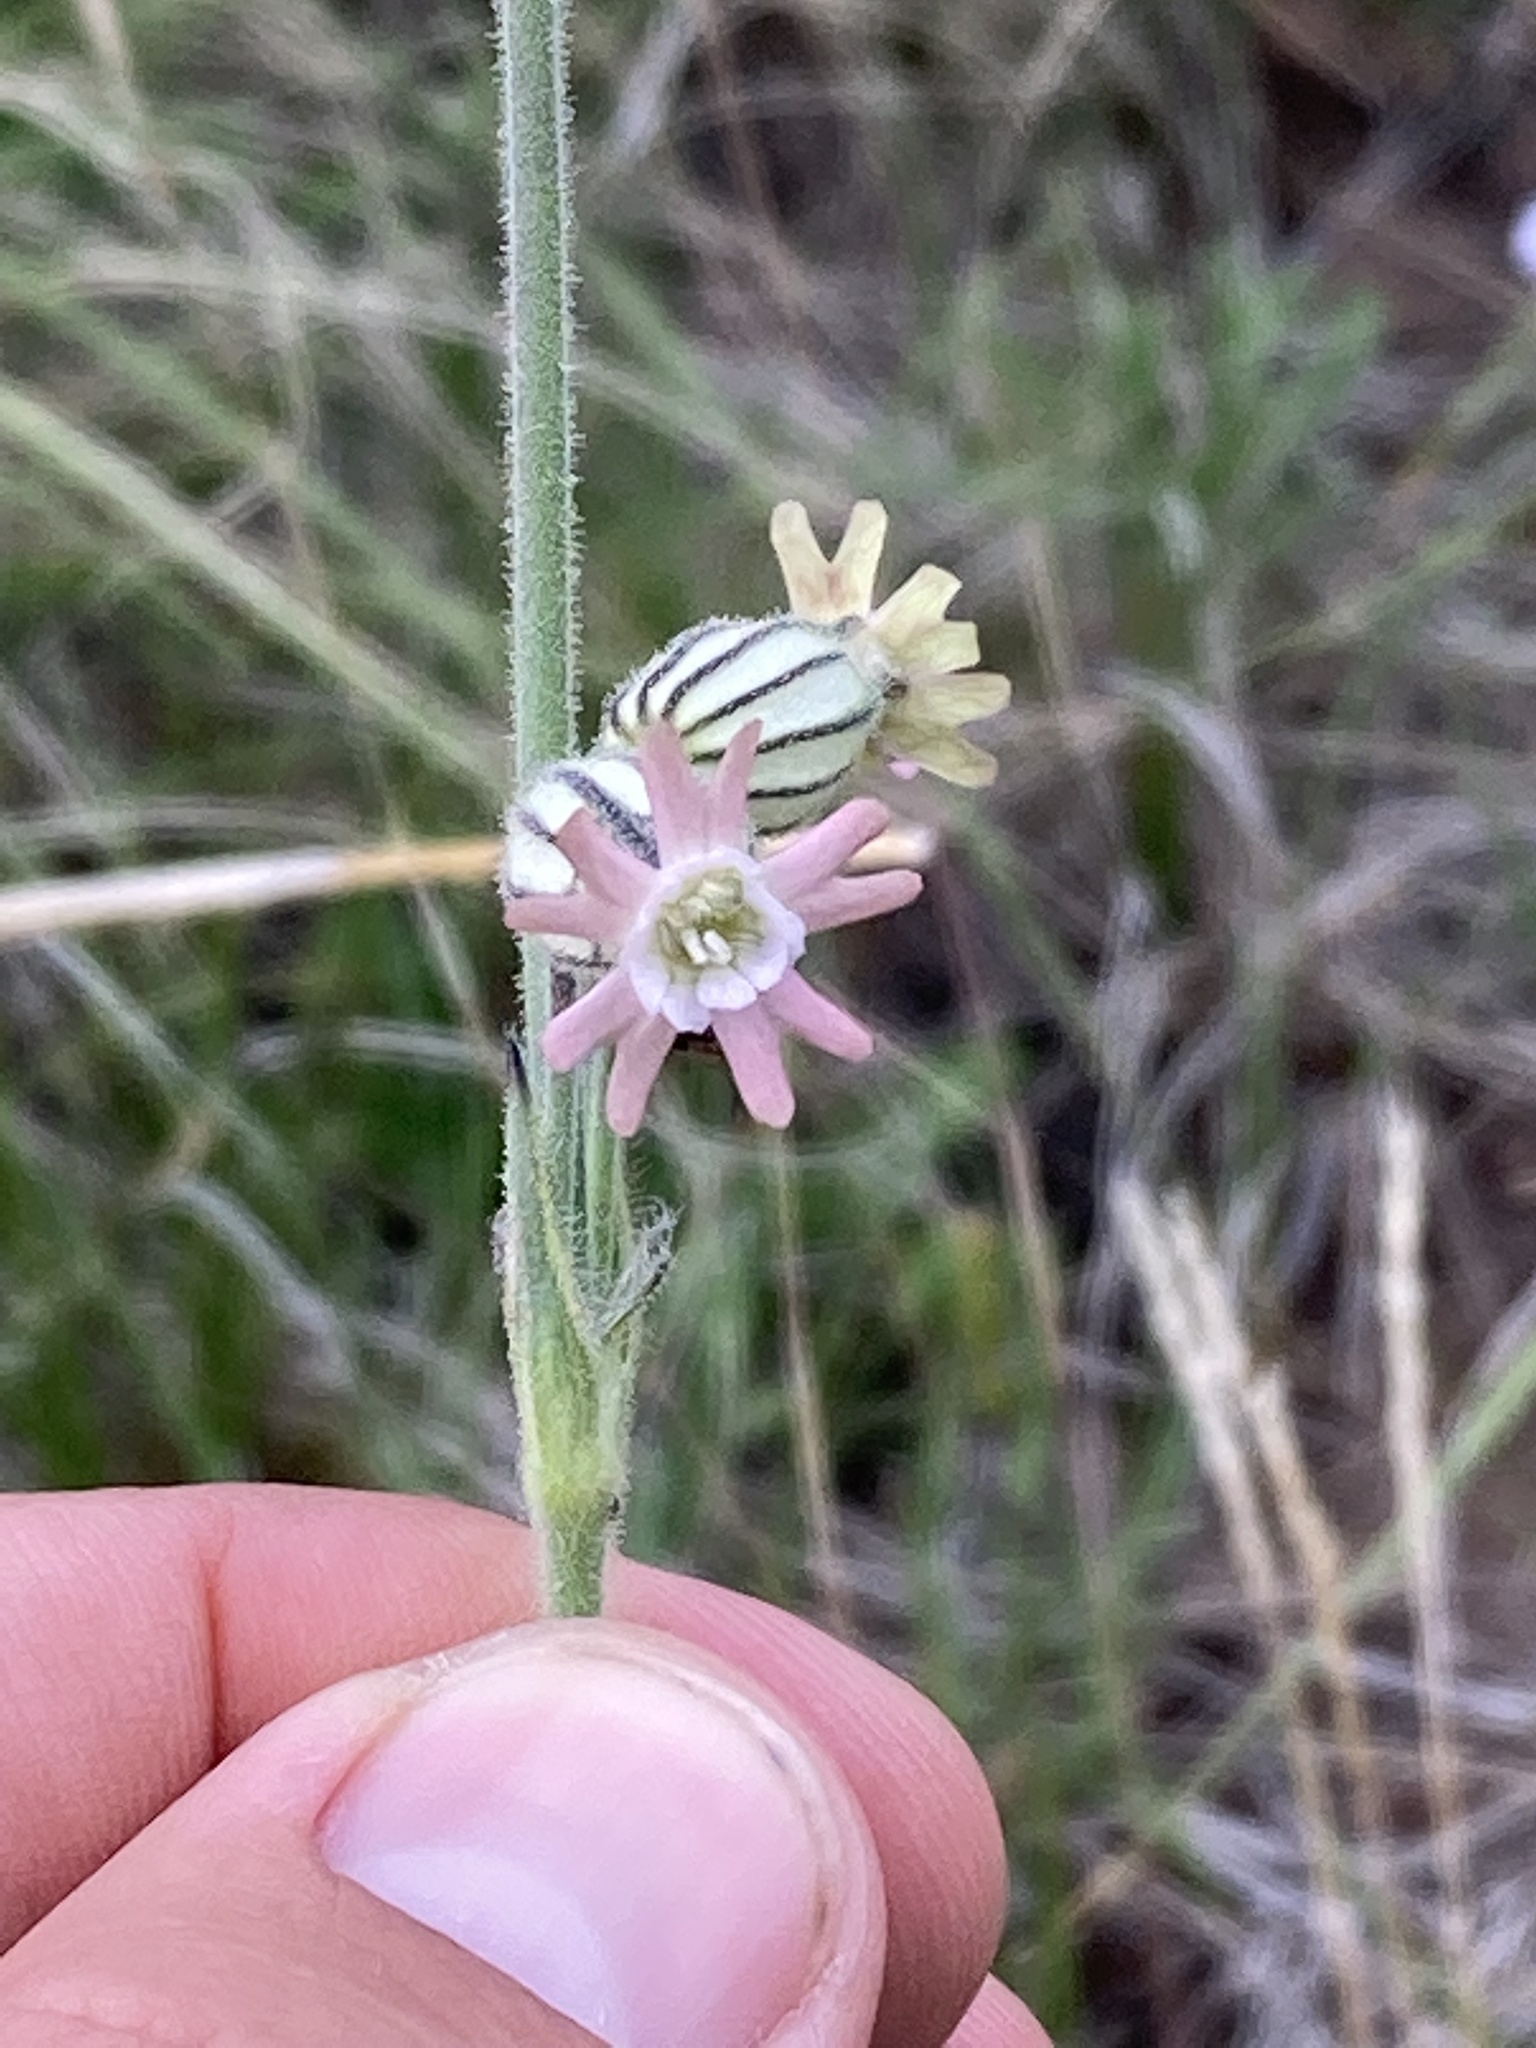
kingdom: Plantae
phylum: Tracheophyta
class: Magnoliopsida
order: Caryophyllales
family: Caryophyllaceae
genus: Silene
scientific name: Silene scouleri
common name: Scouler's campion
